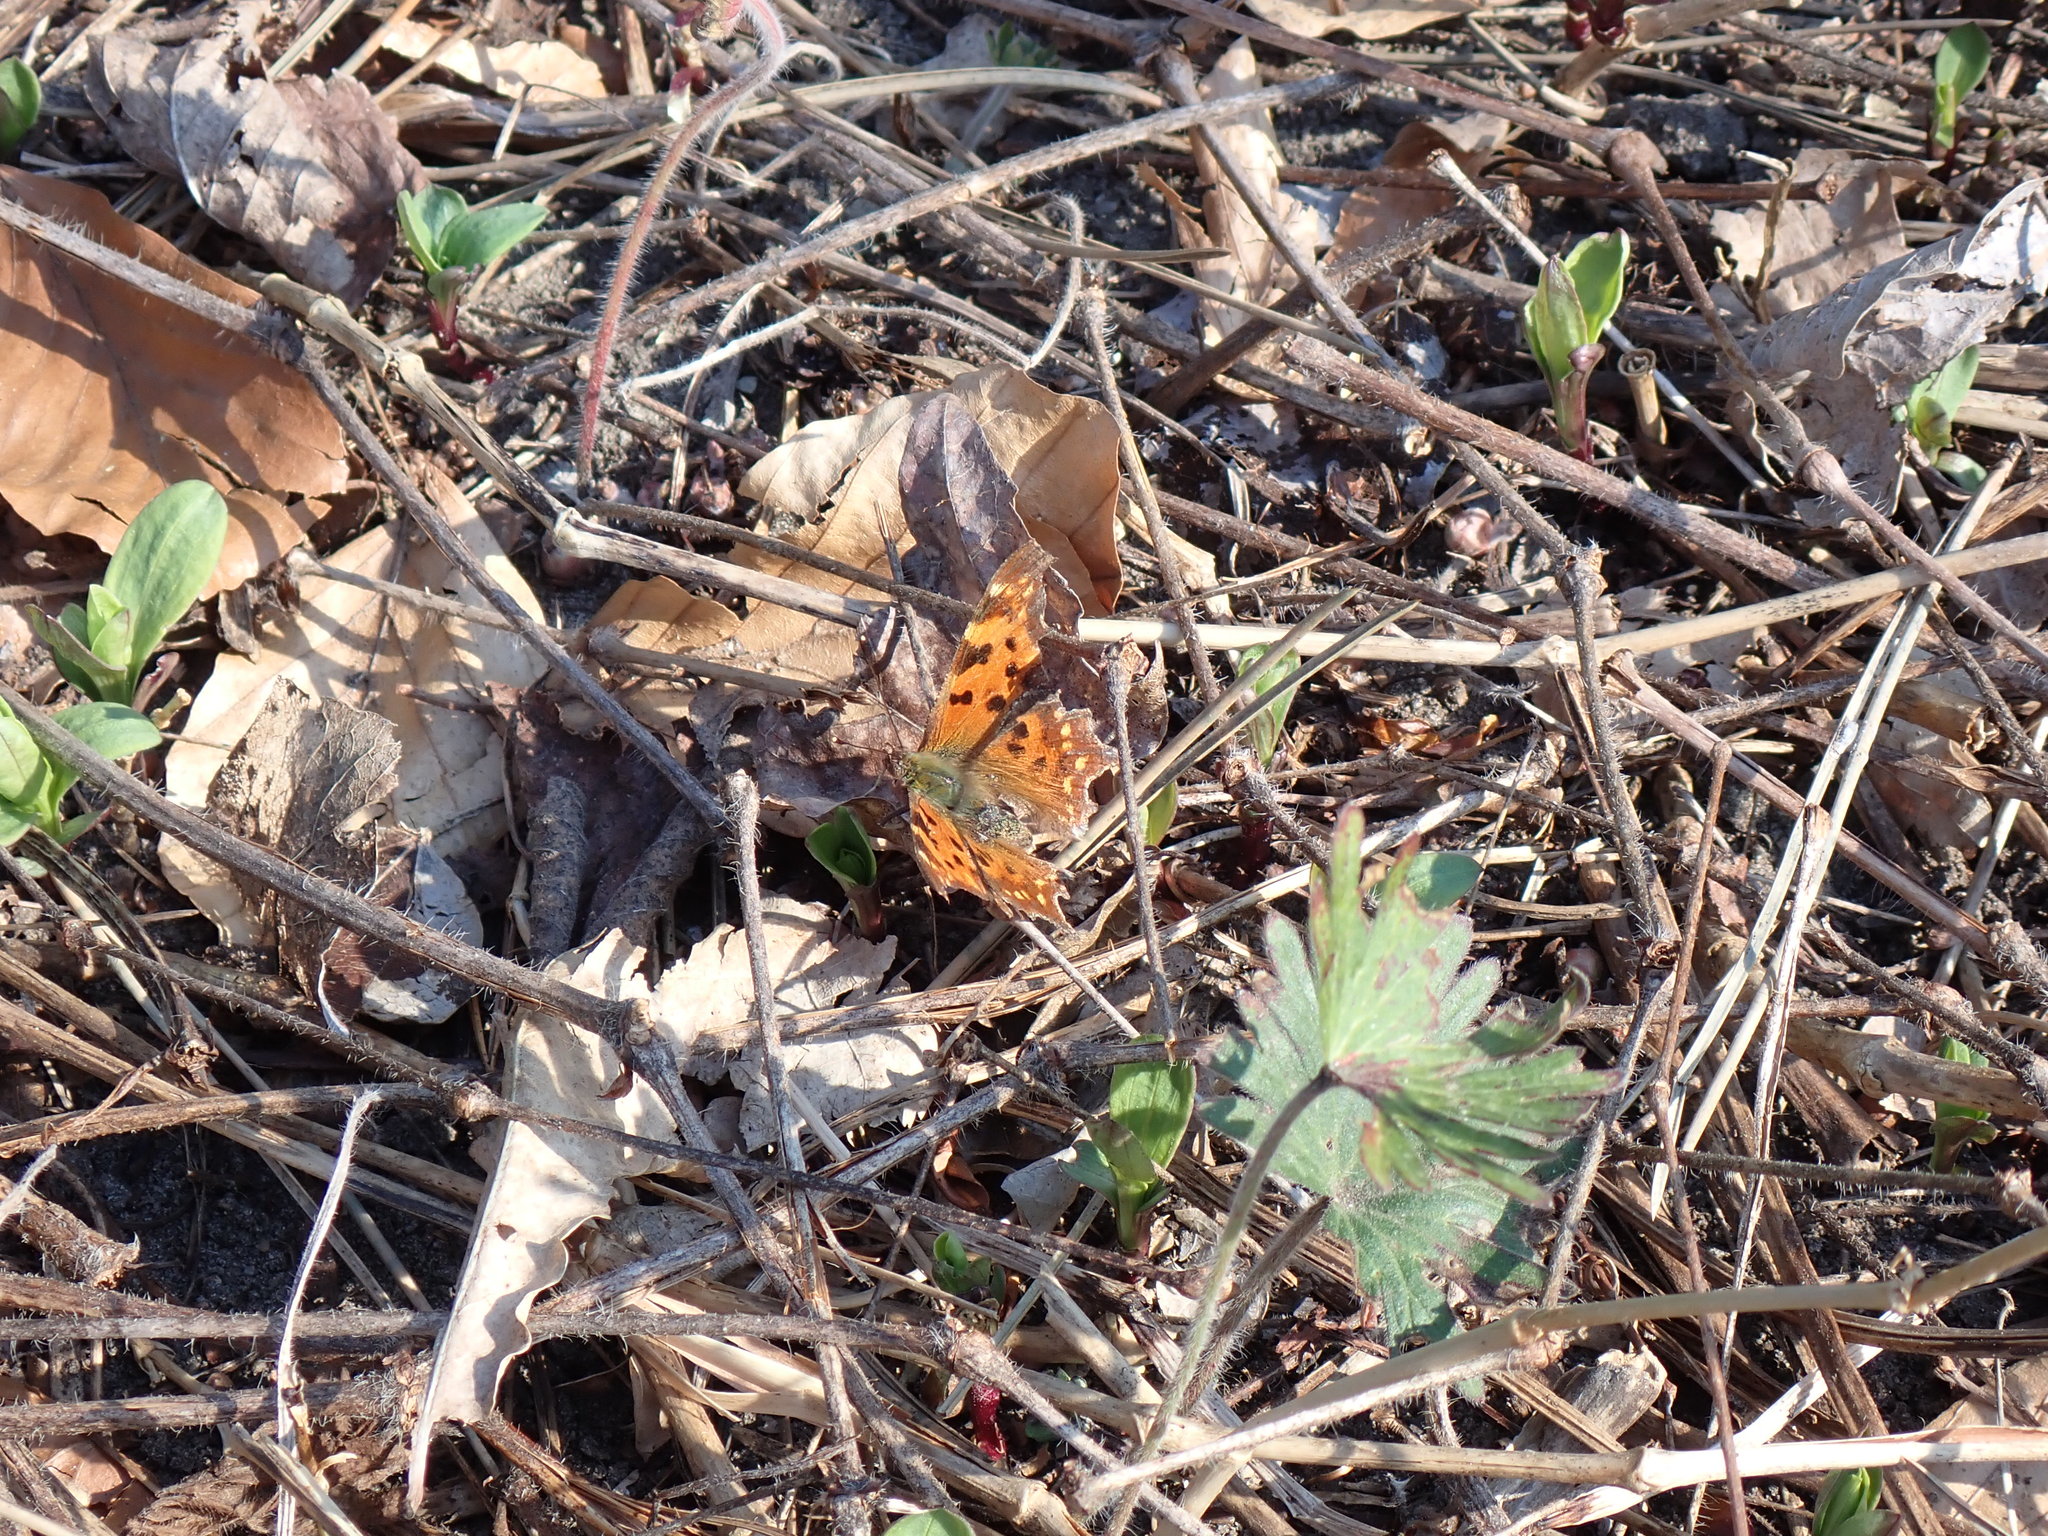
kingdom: Animalia
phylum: Arthropoda
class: Insecta
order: Lepidoptera
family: Nymphalidae
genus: Polygonia
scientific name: Polygonia c-album
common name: Comma
